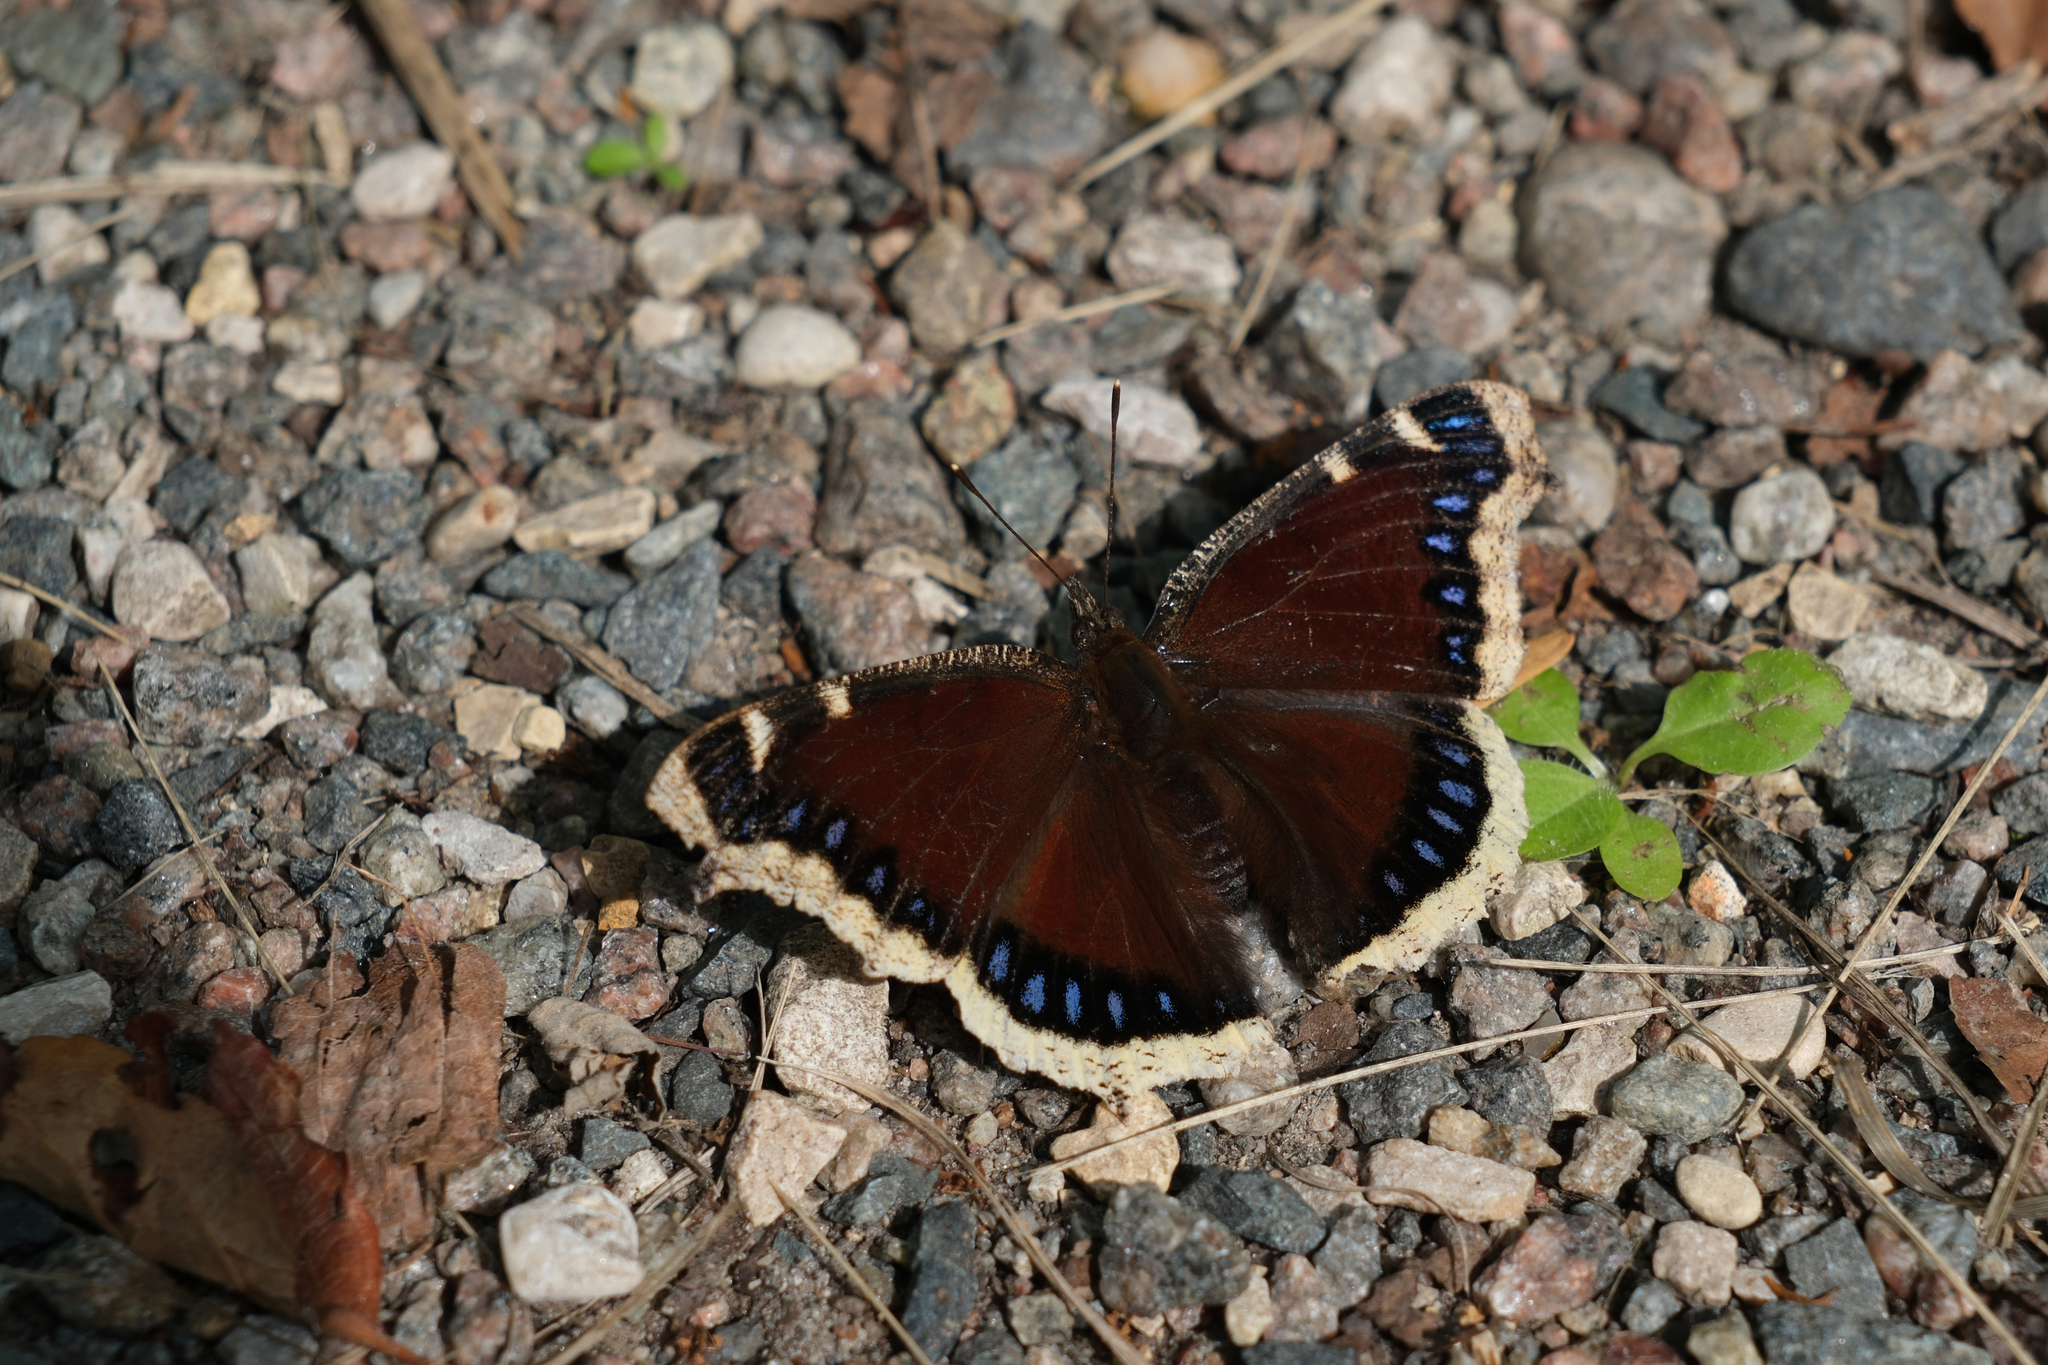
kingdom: Animalia
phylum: Arthropoda
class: Insecta
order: Lepidoptera
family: Nymphalidae
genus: Nymphalis
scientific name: Nymphalis antiopa
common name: Camberwell beauty
